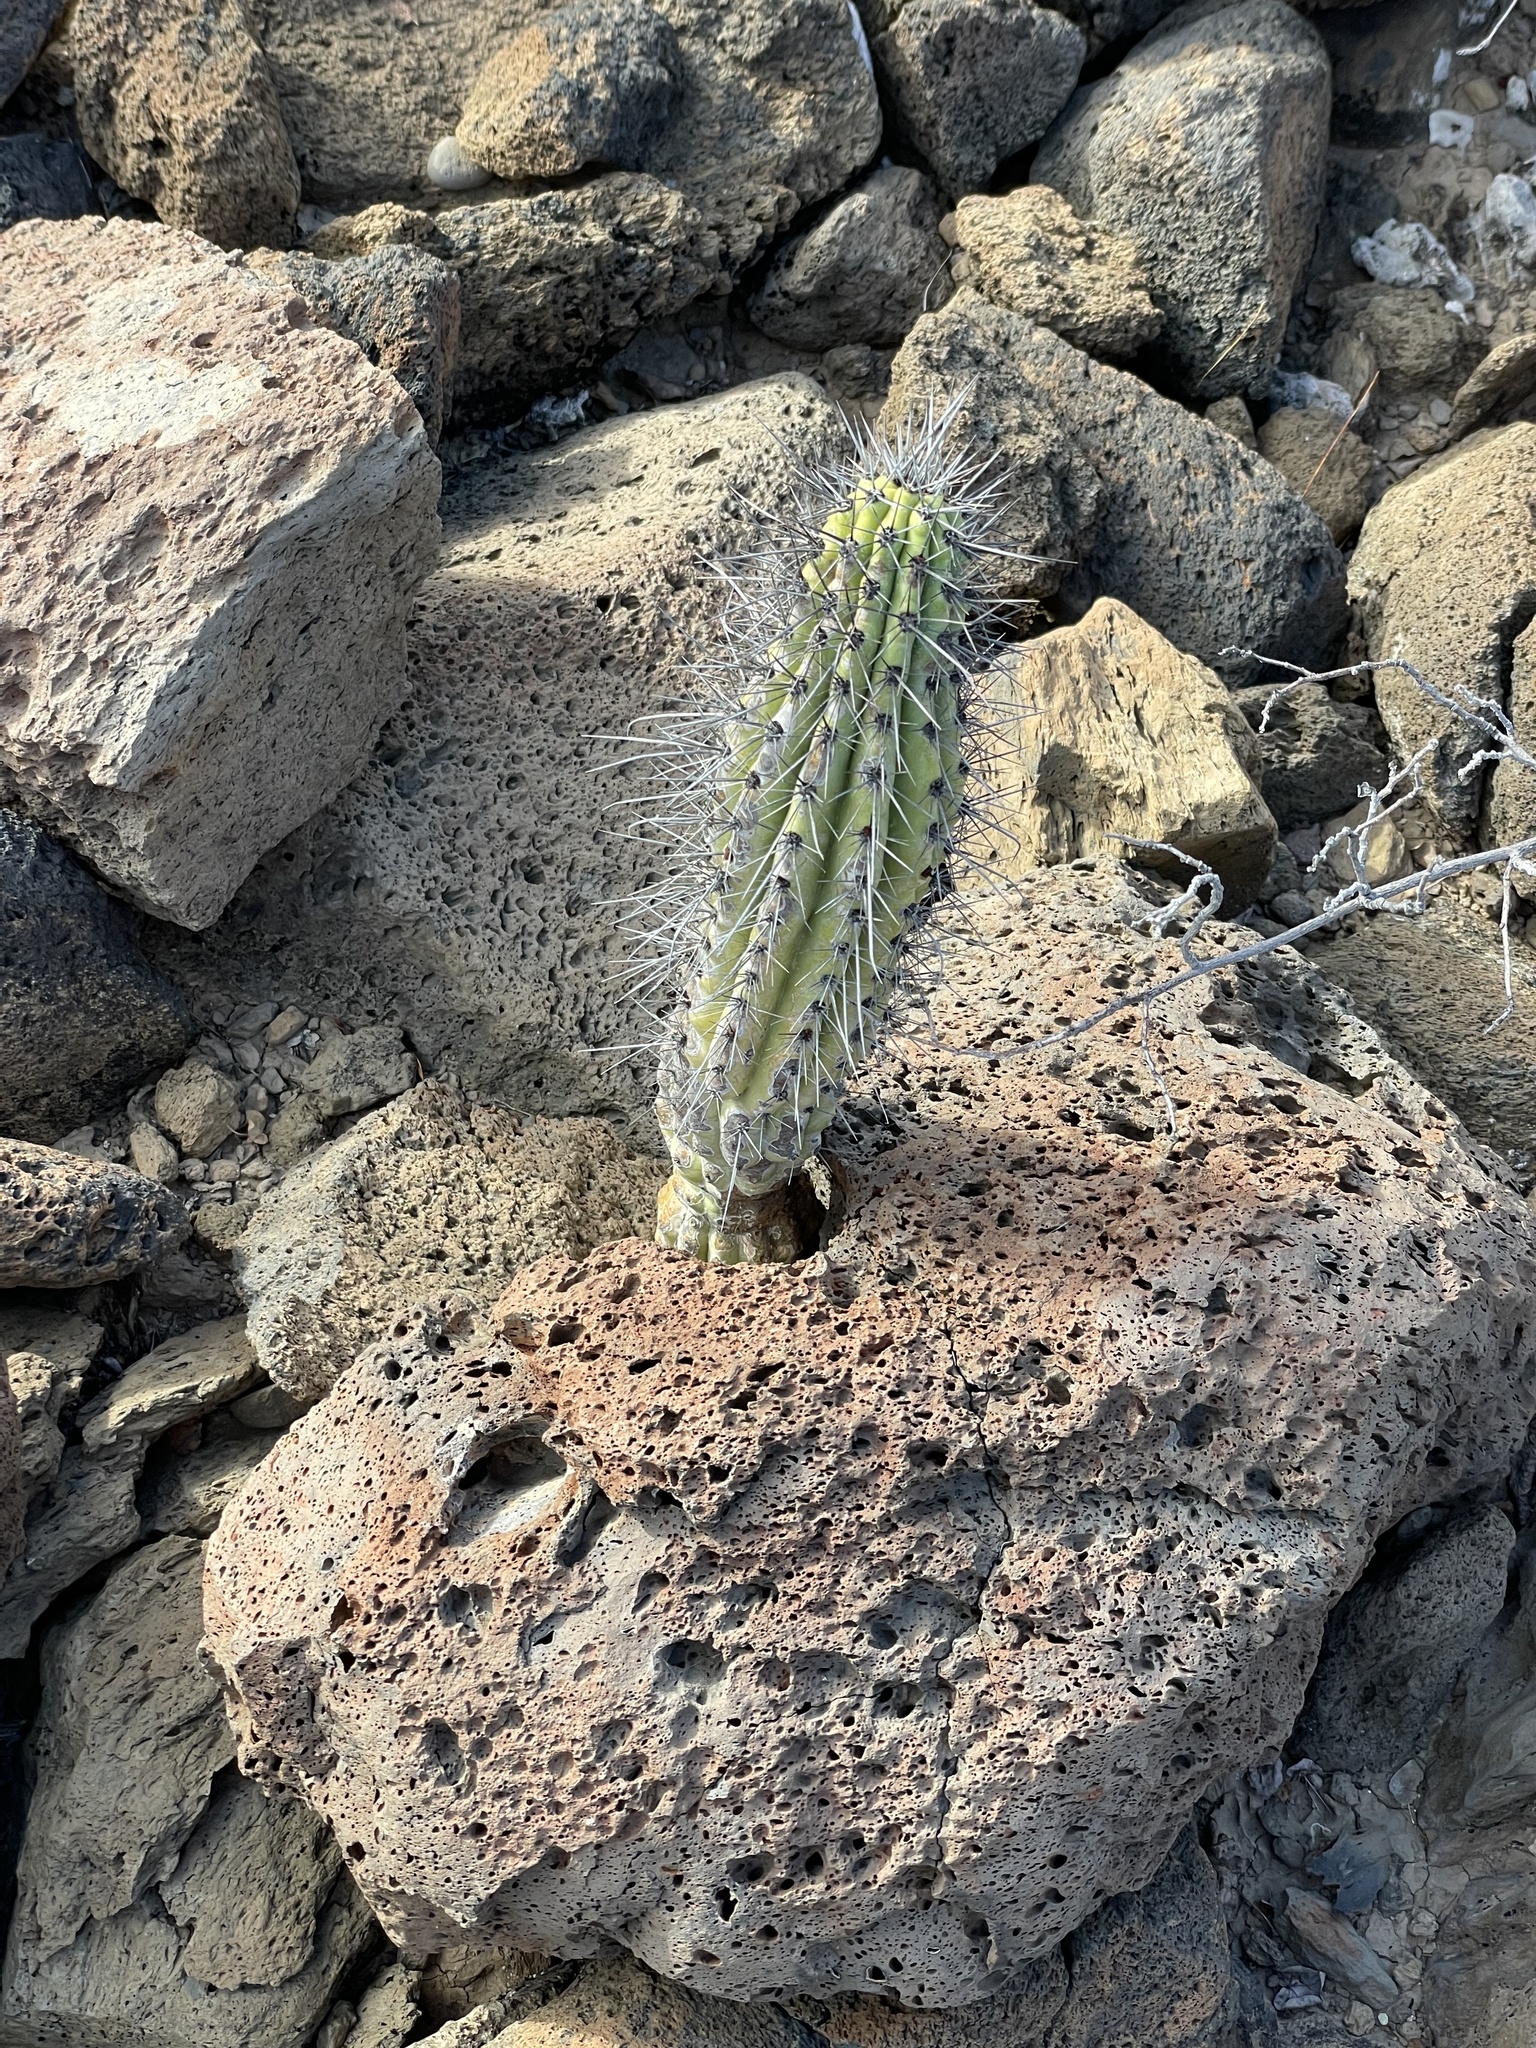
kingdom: Plantae
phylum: Tracheophyta
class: Magnoliopsida
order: Caryophyllales
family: Cactaceae
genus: Stenocereus
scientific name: Stenocereus thurberi
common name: Organ pipe cactus
